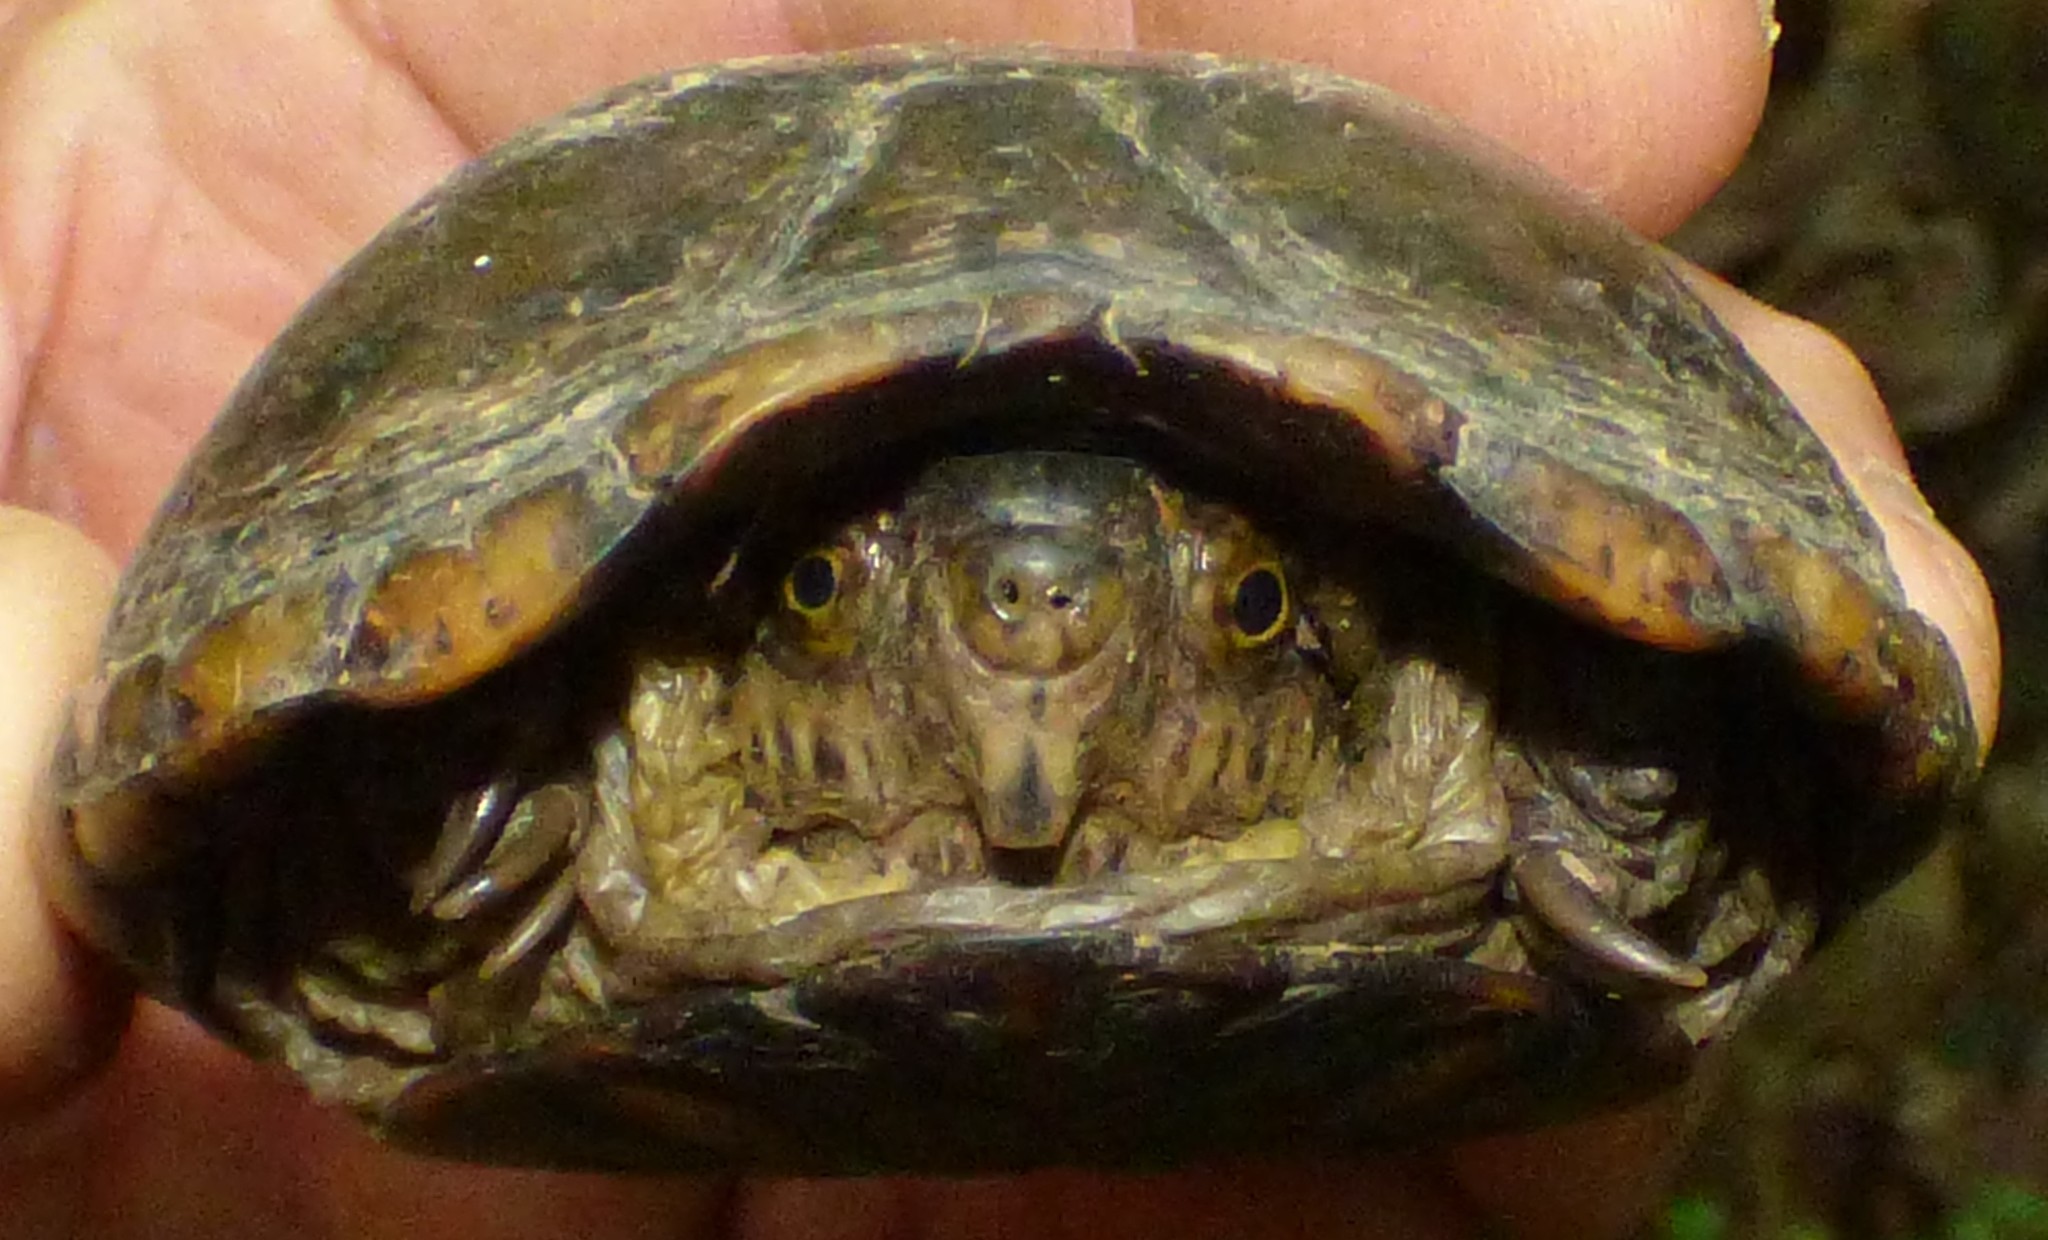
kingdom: Animalia
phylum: Chordata
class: Testudines
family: Kinosternidae
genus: Kinosternon
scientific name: Kinosternon subrubrum
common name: Eastern mud turtle
